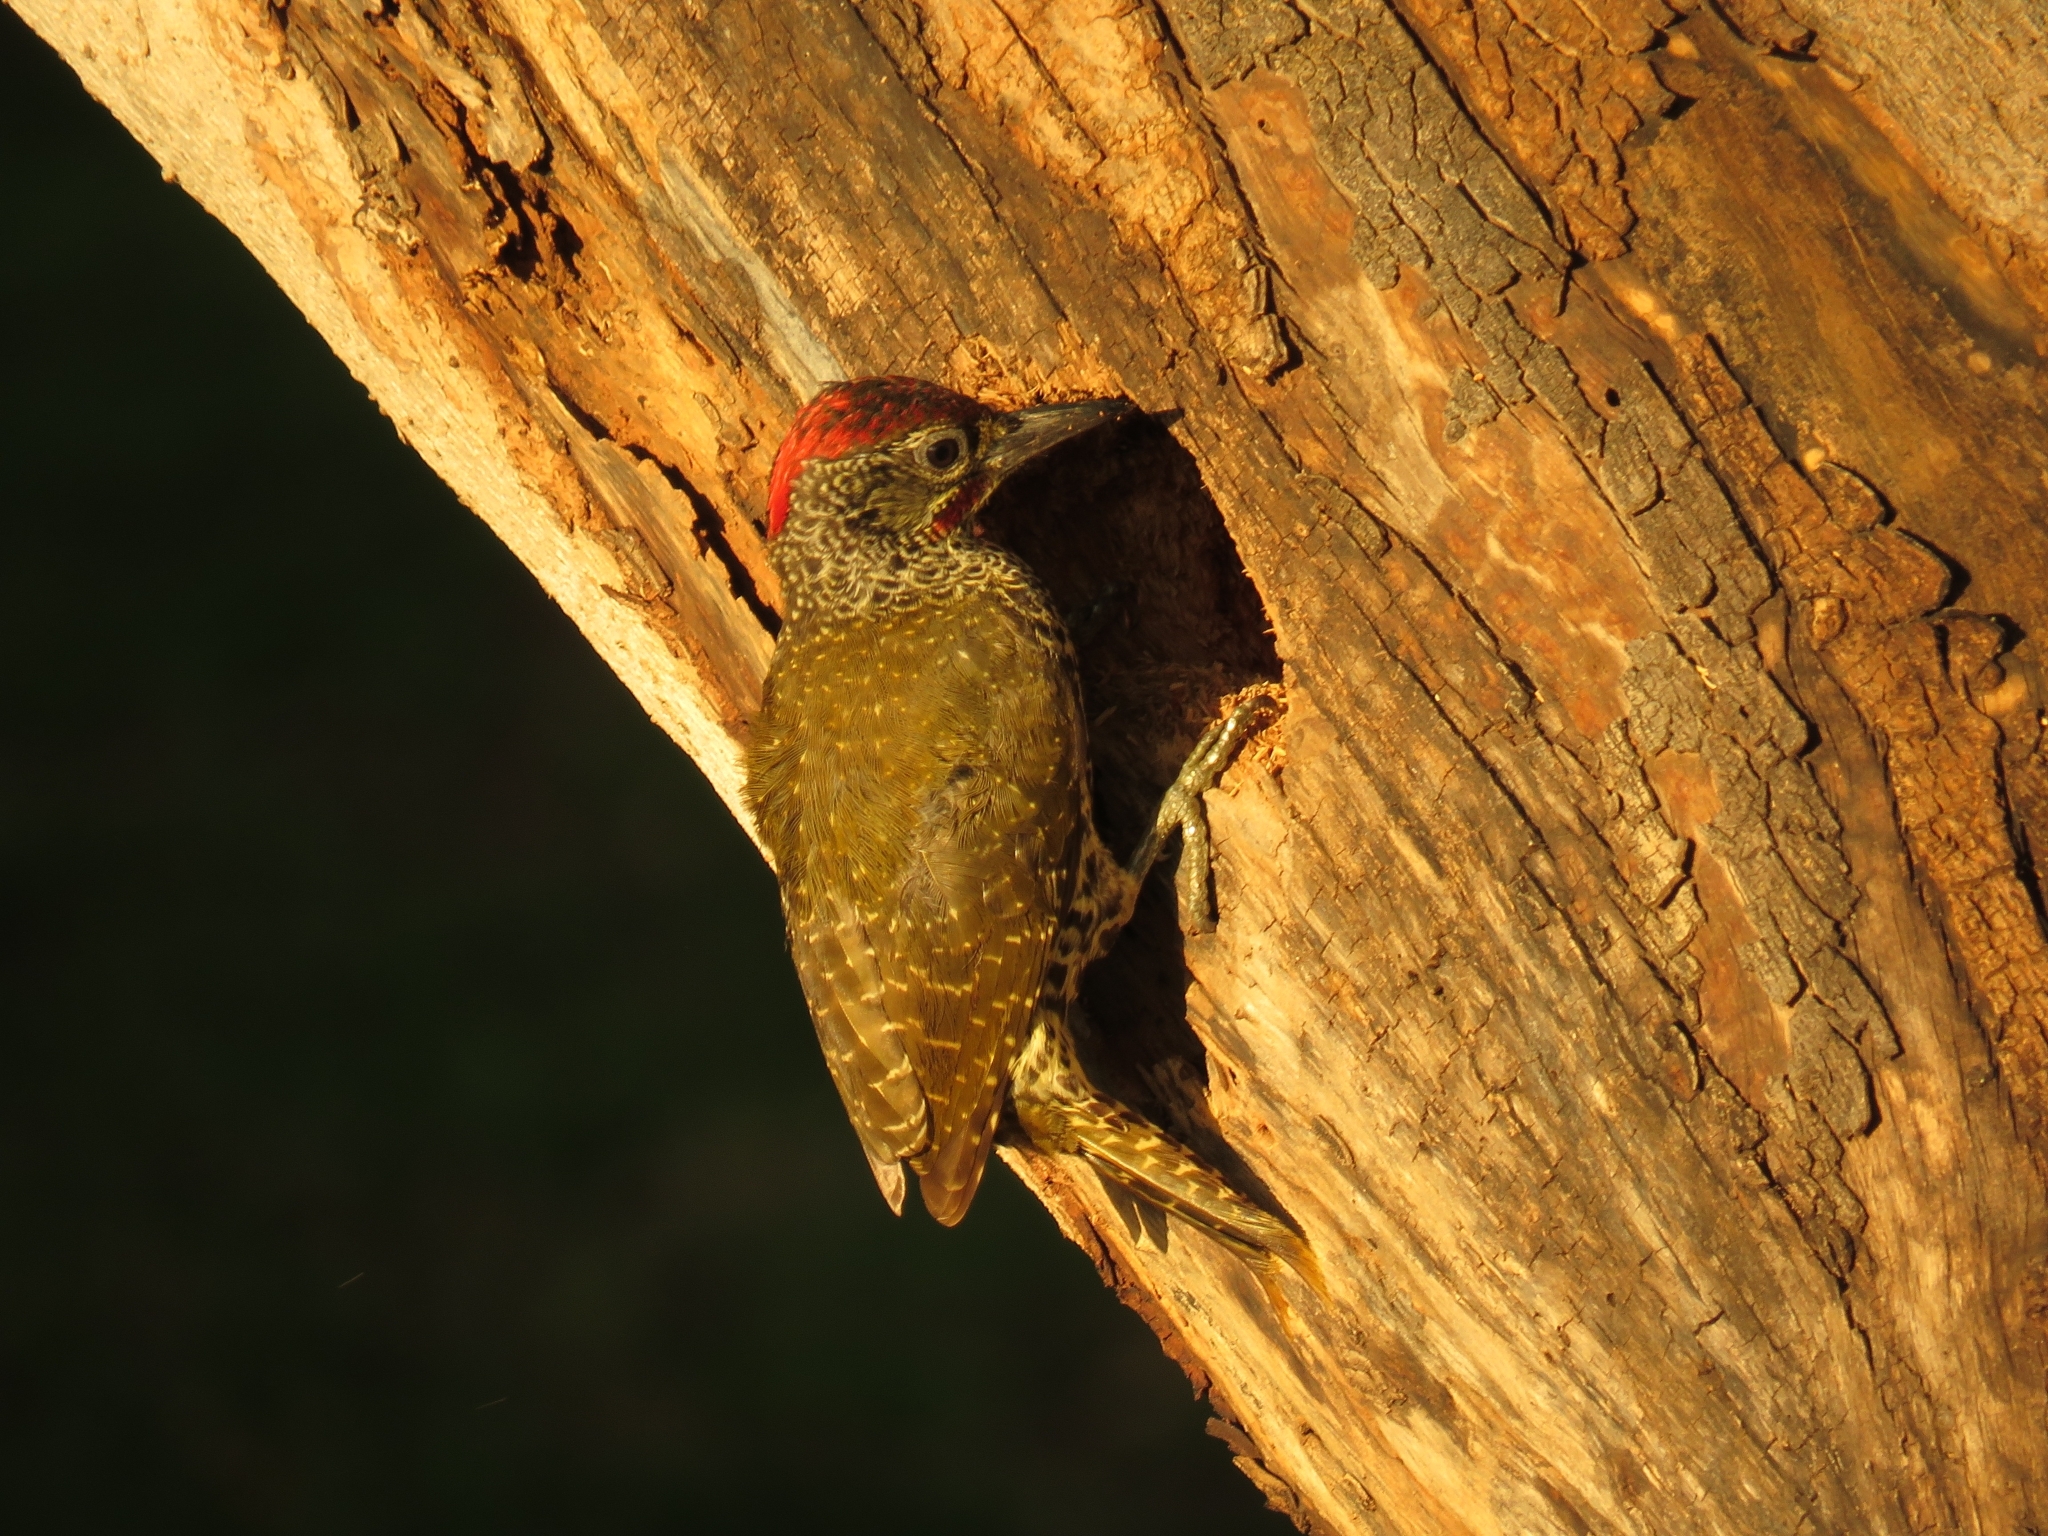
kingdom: Animalia
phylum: Chordata
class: Aves
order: Piciformes
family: Picidae
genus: Campethera
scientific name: Campethera notata
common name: Knysna woodpecker
